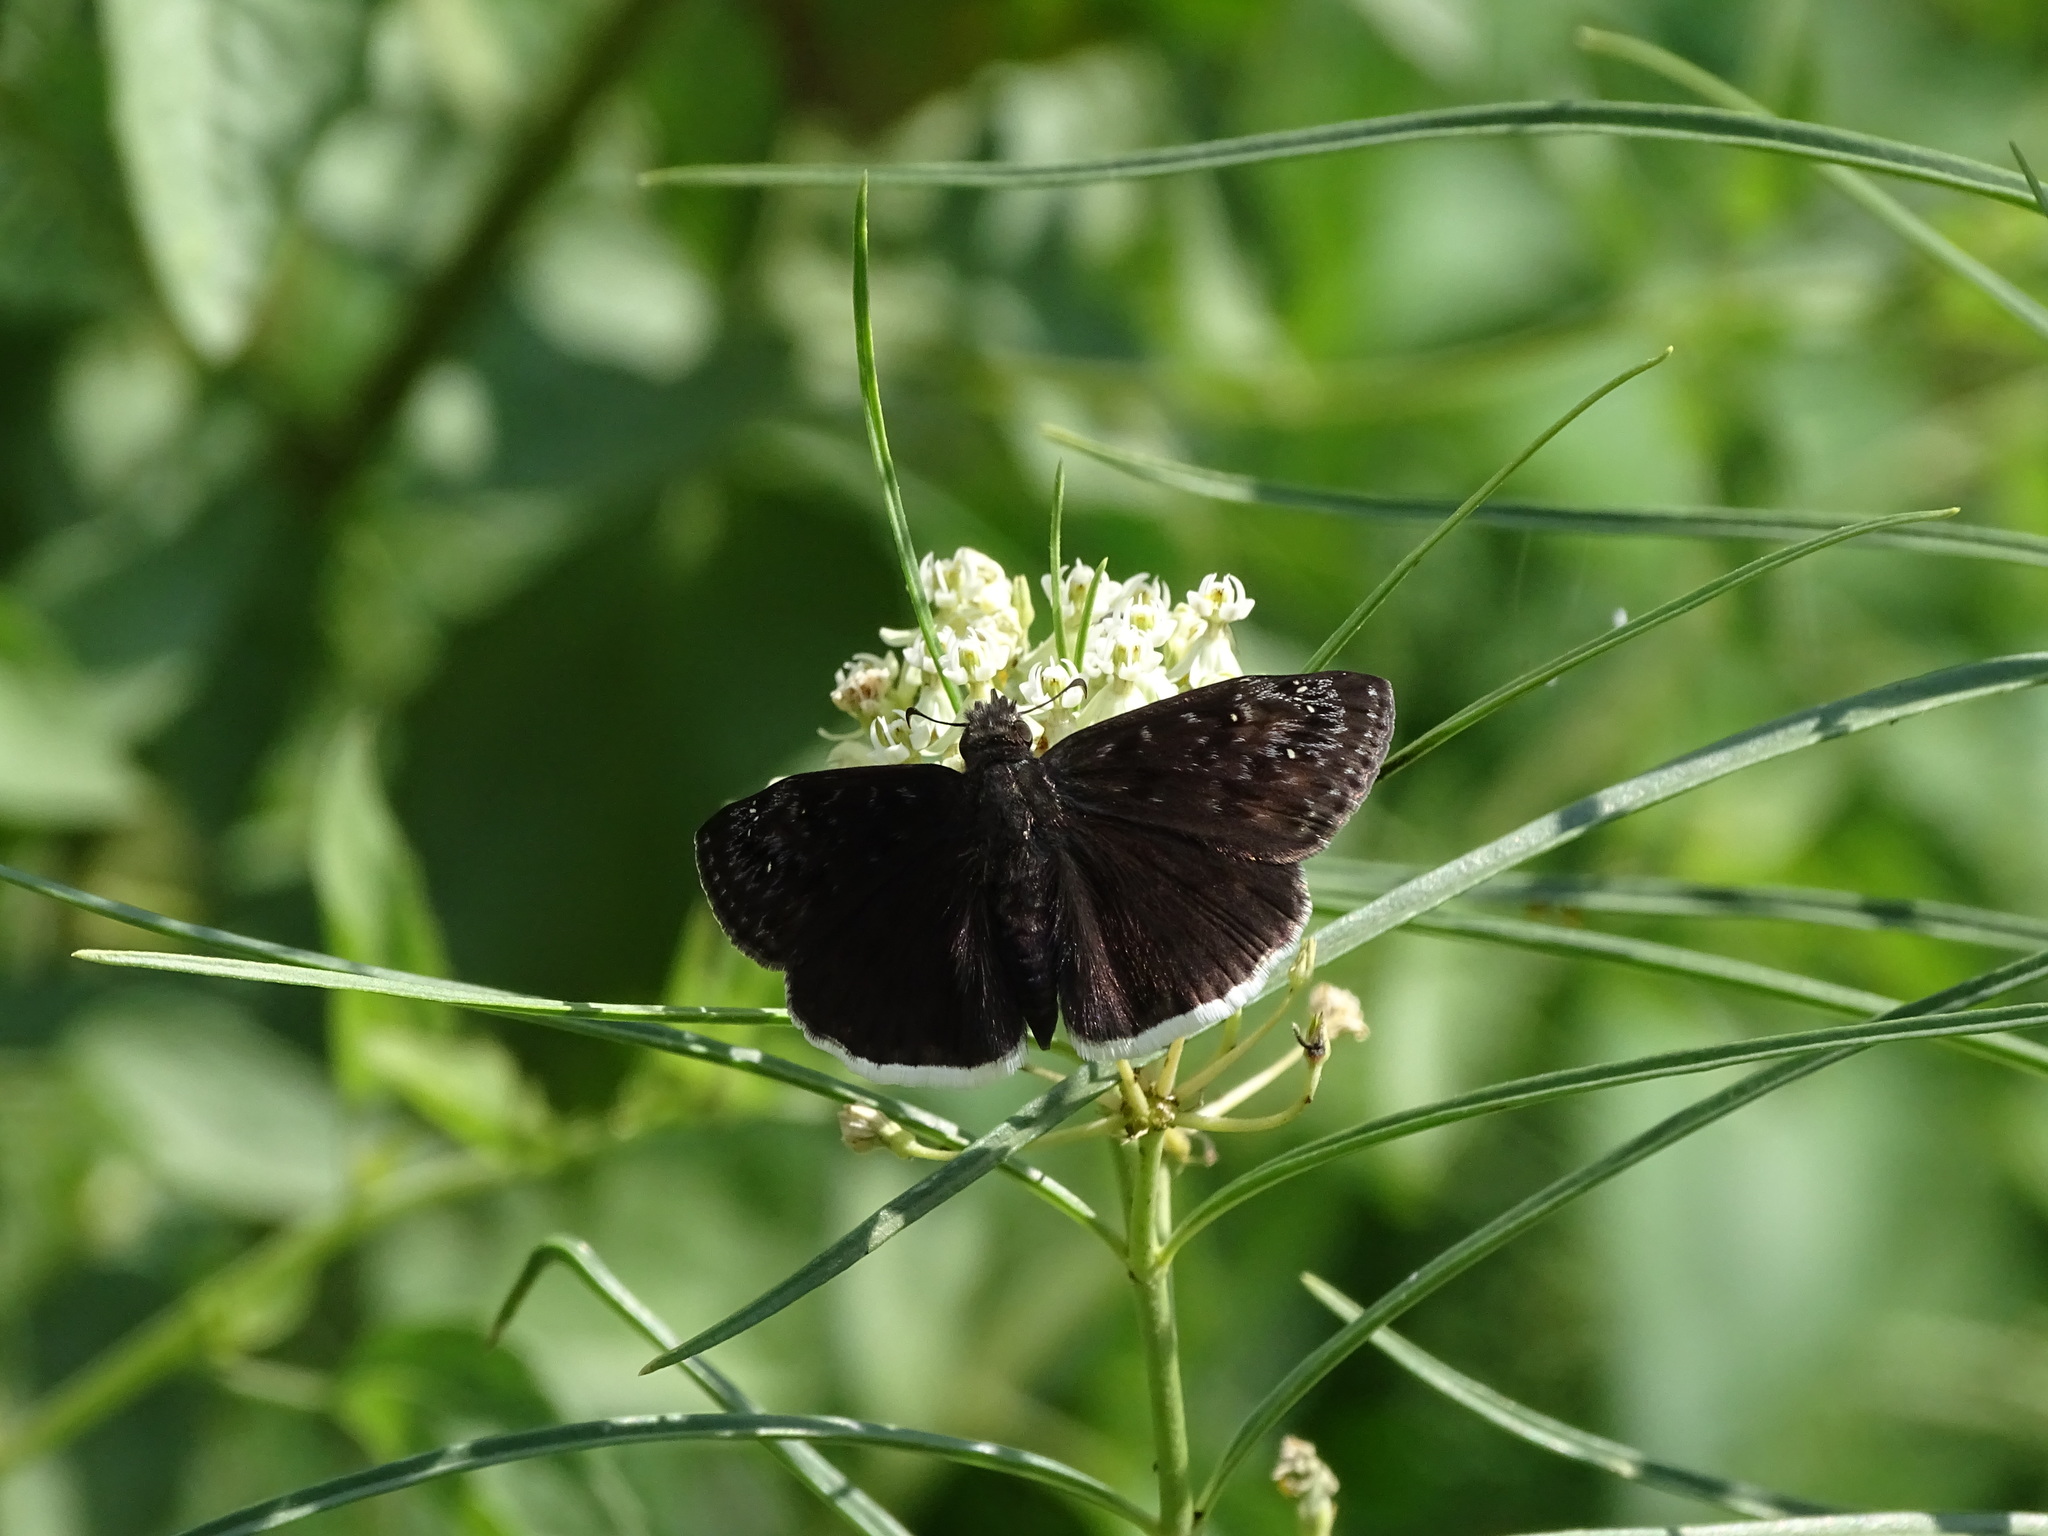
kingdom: Animalia
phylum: Arthropoda
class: Insecta
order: Lepidoptera
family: Hesperiidae
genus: Erynnis
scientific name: Erynnis tristis
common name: Mournful duskywing
